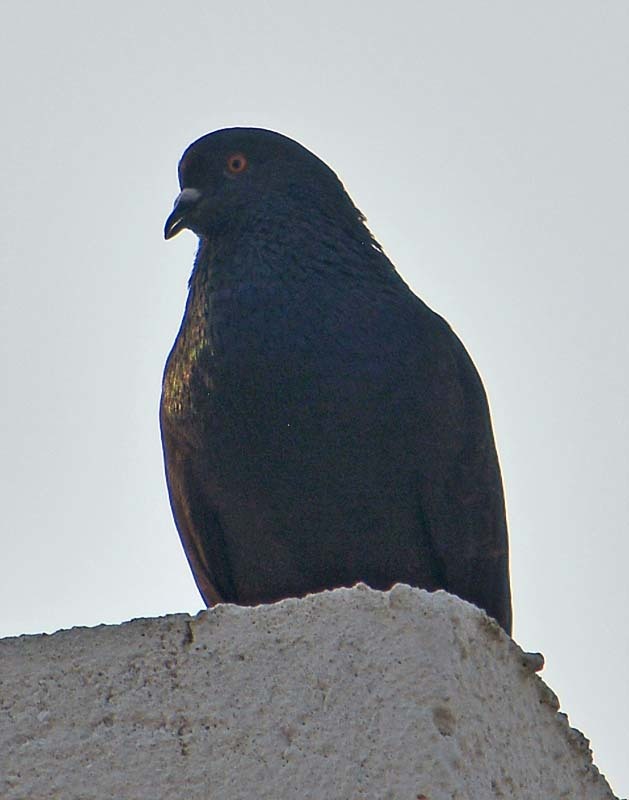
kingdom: Animalia
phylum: Chordata
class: Aves
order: Columbiformes
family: Columbidae
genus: Columba
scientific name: Columba livia
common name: Rock pigeon
